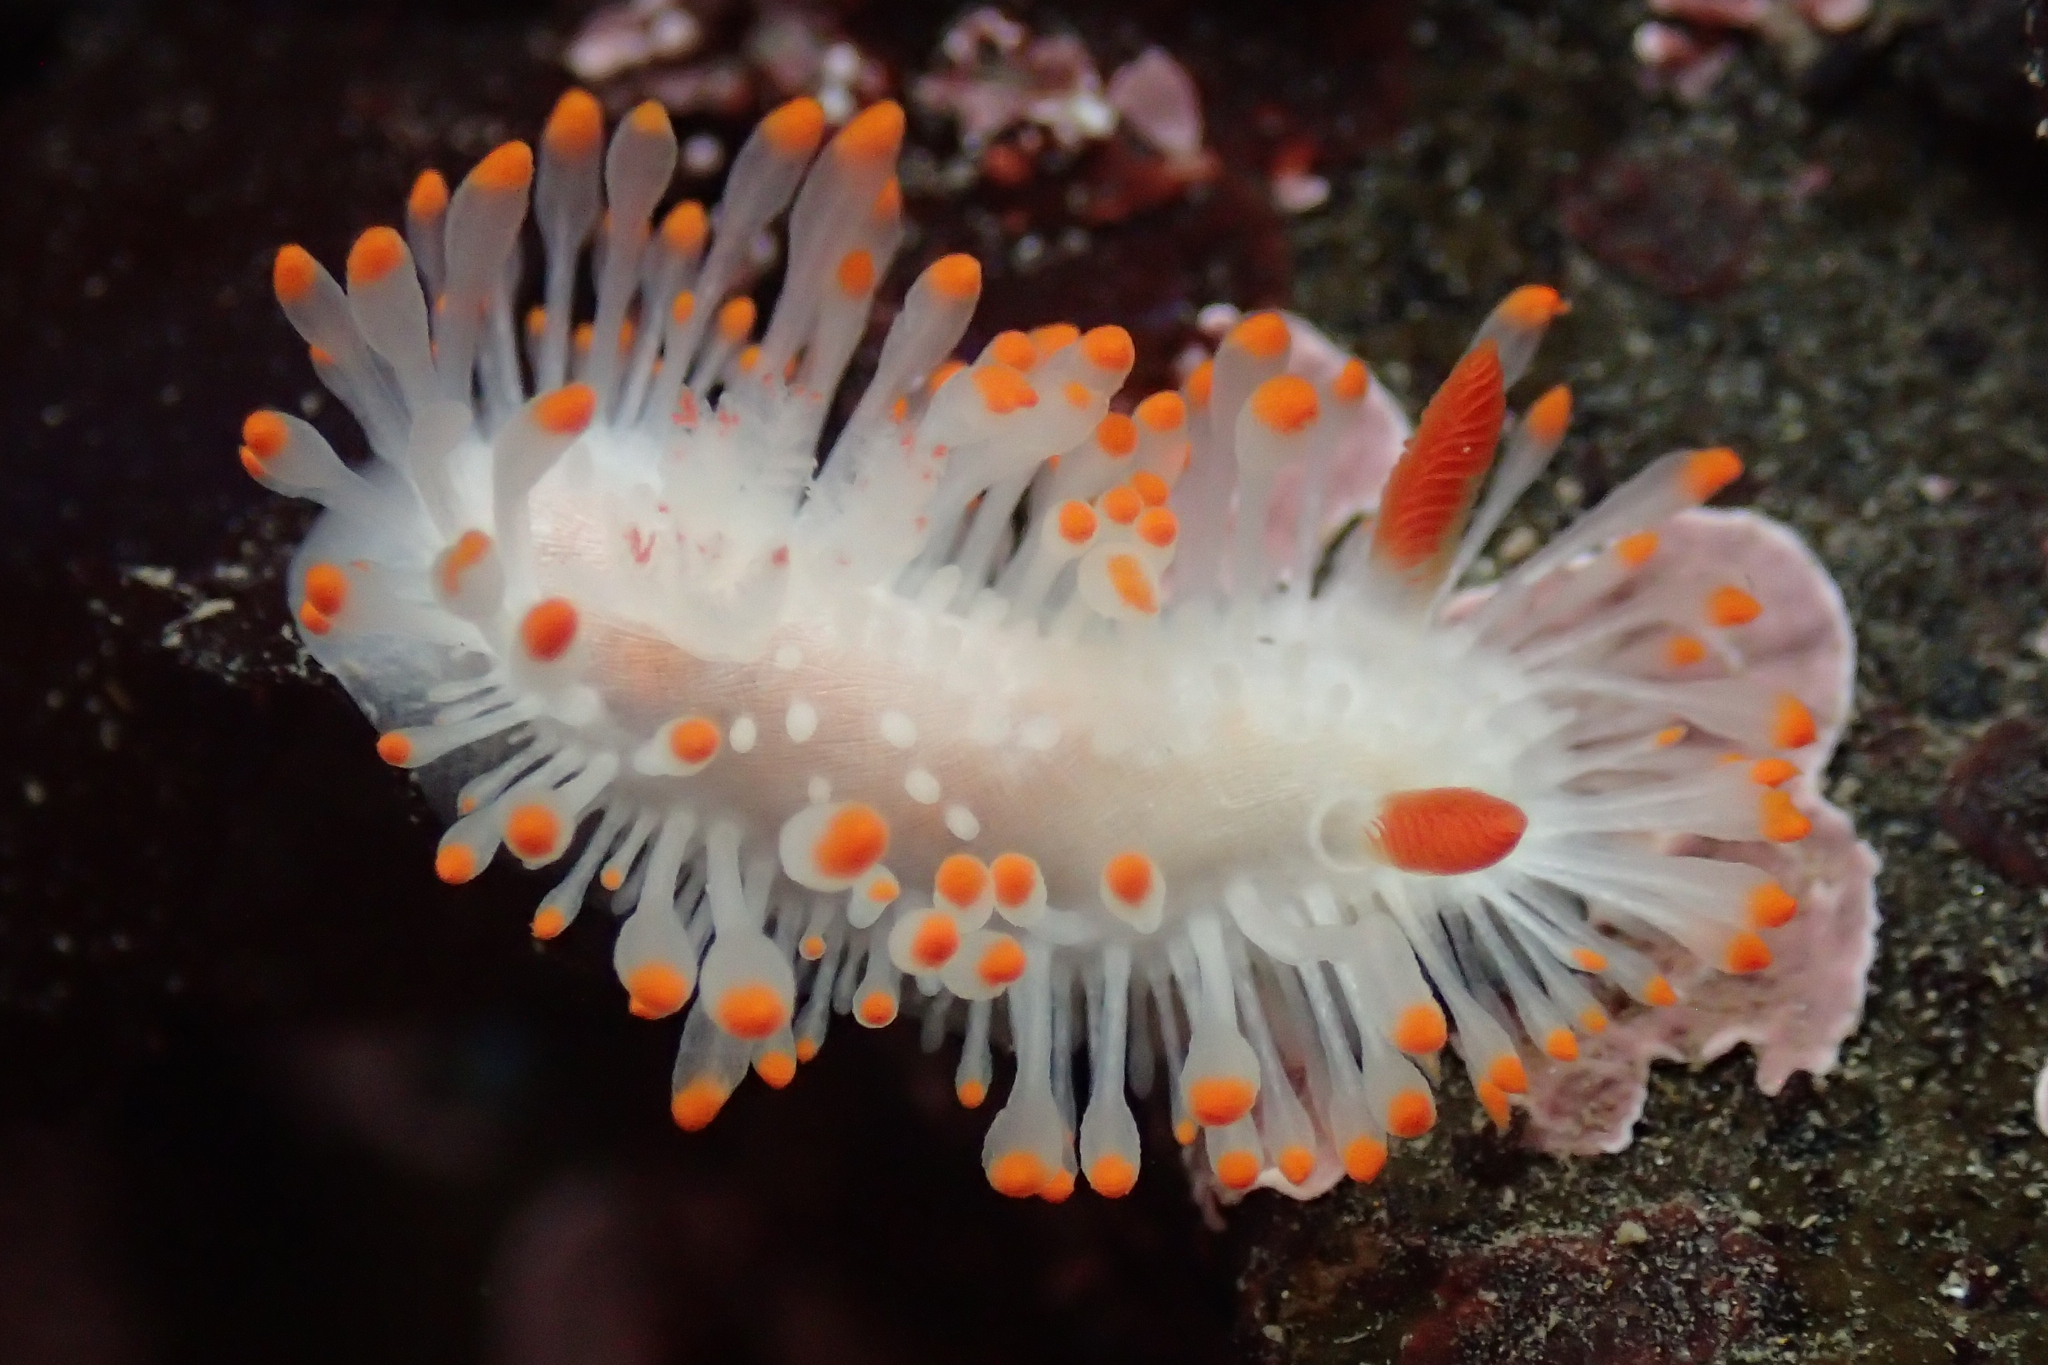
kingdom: Animalia
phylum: Mollusca
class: Gastropoda
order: Nudibranchia
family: Polyceridae
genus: Limacia
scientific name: Limacia cockerelli
